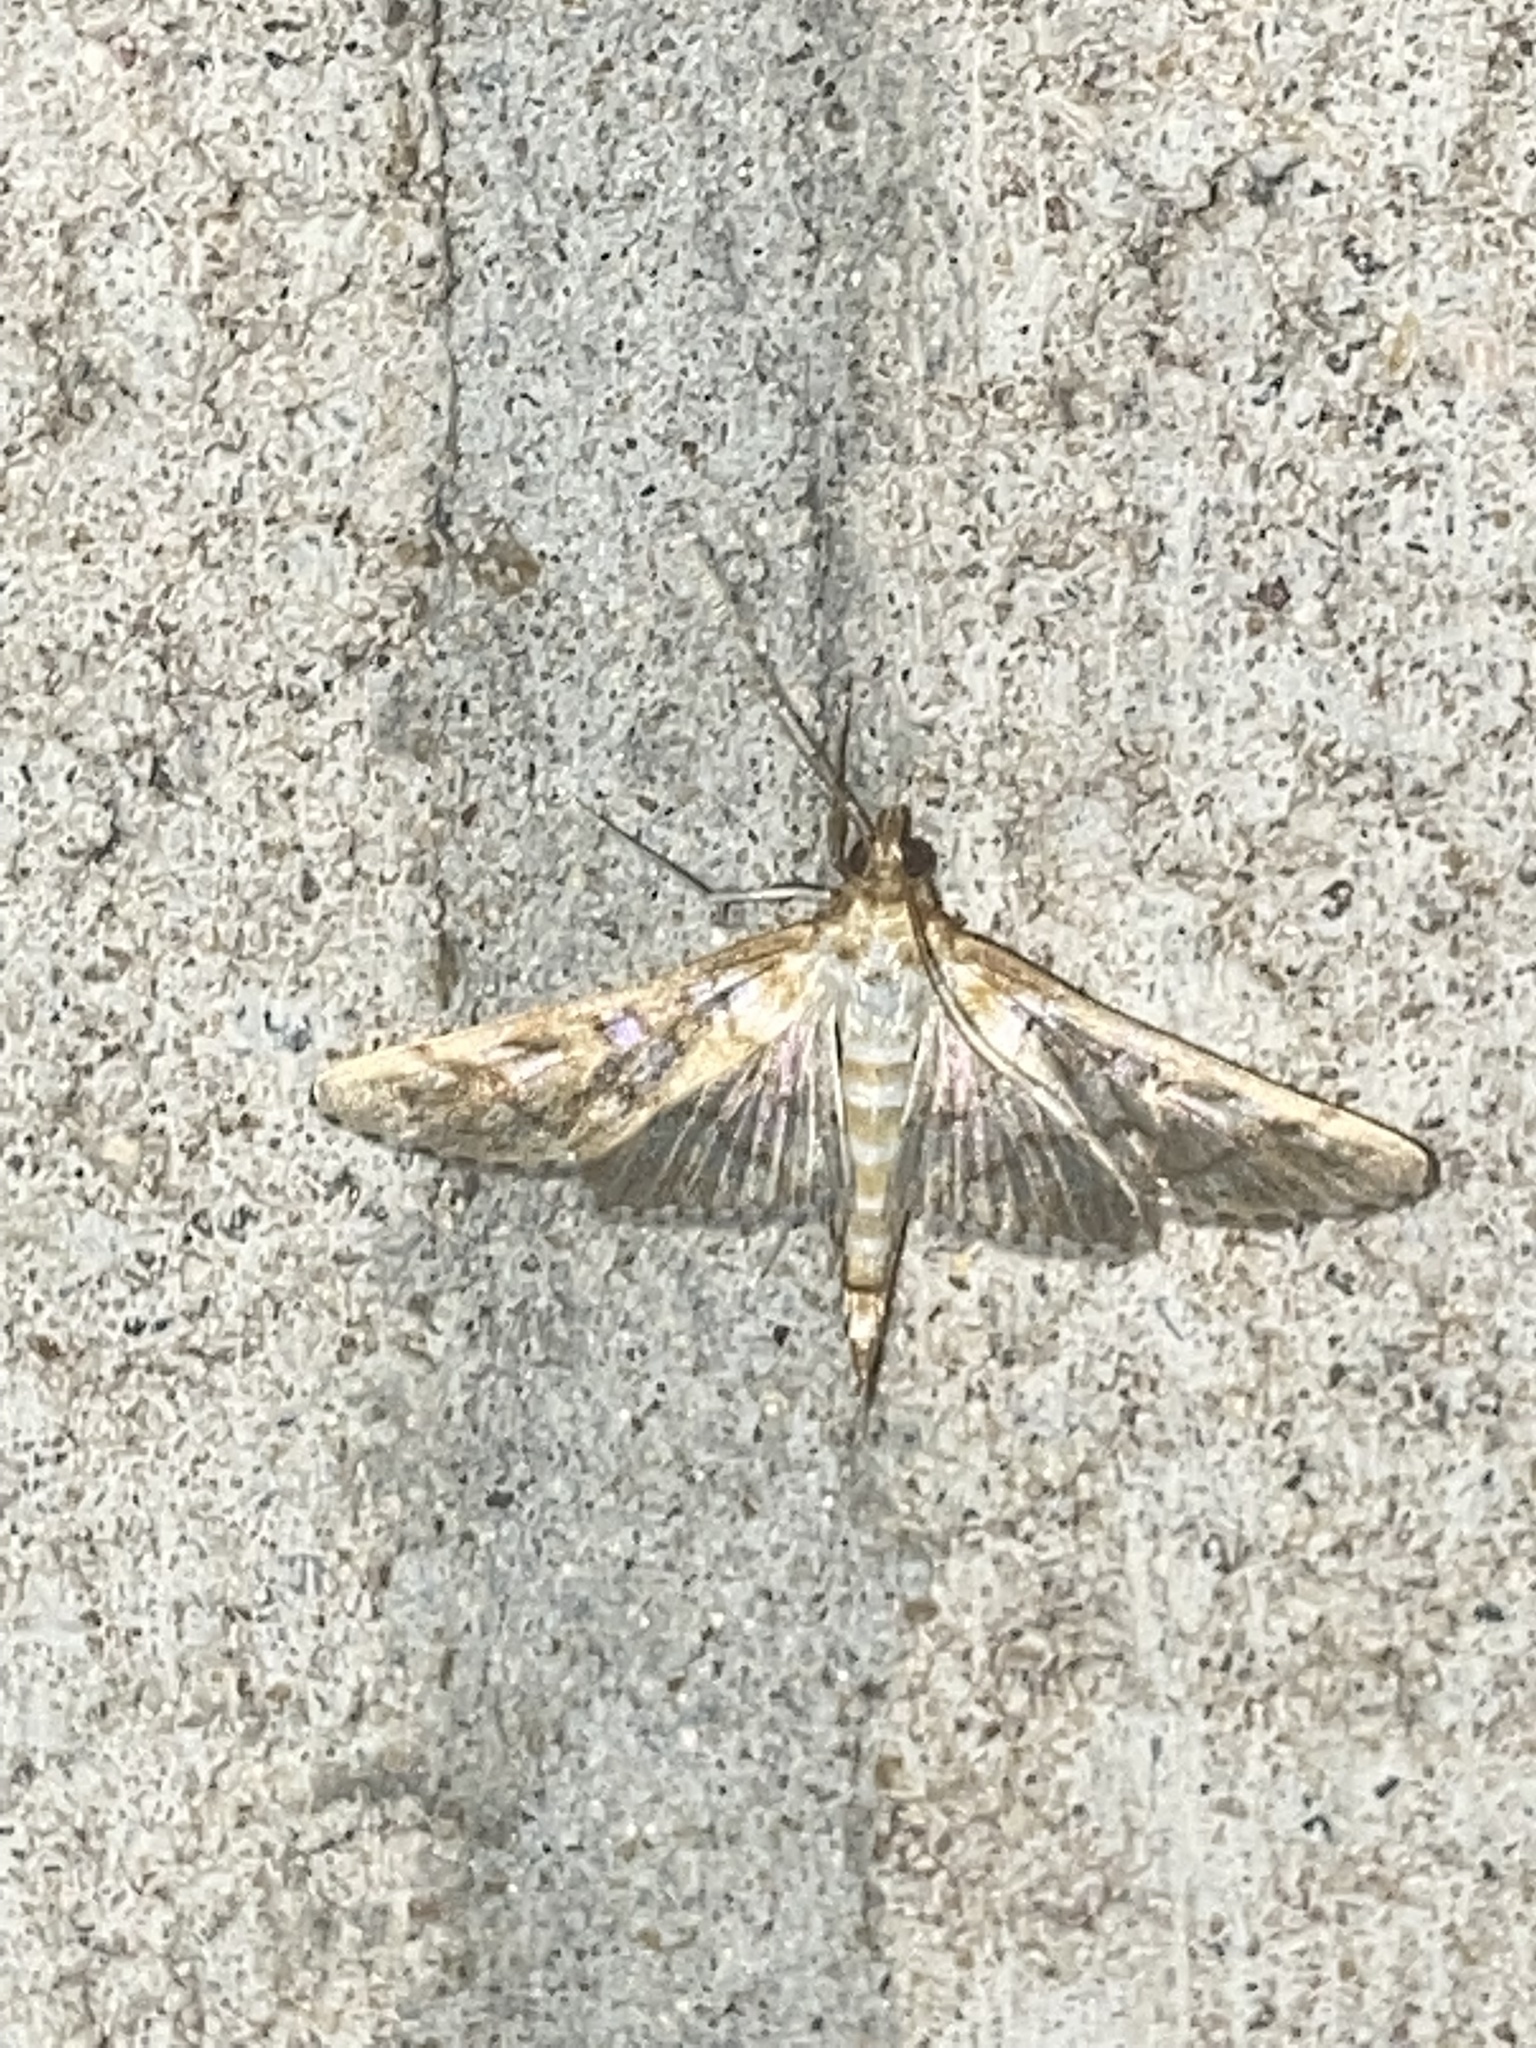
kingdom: Animalia
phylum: Arthropoda
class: Insecta
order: Lepidoptera
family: Crambidae
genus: Epipagis
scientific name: Epipagis fenestralis
